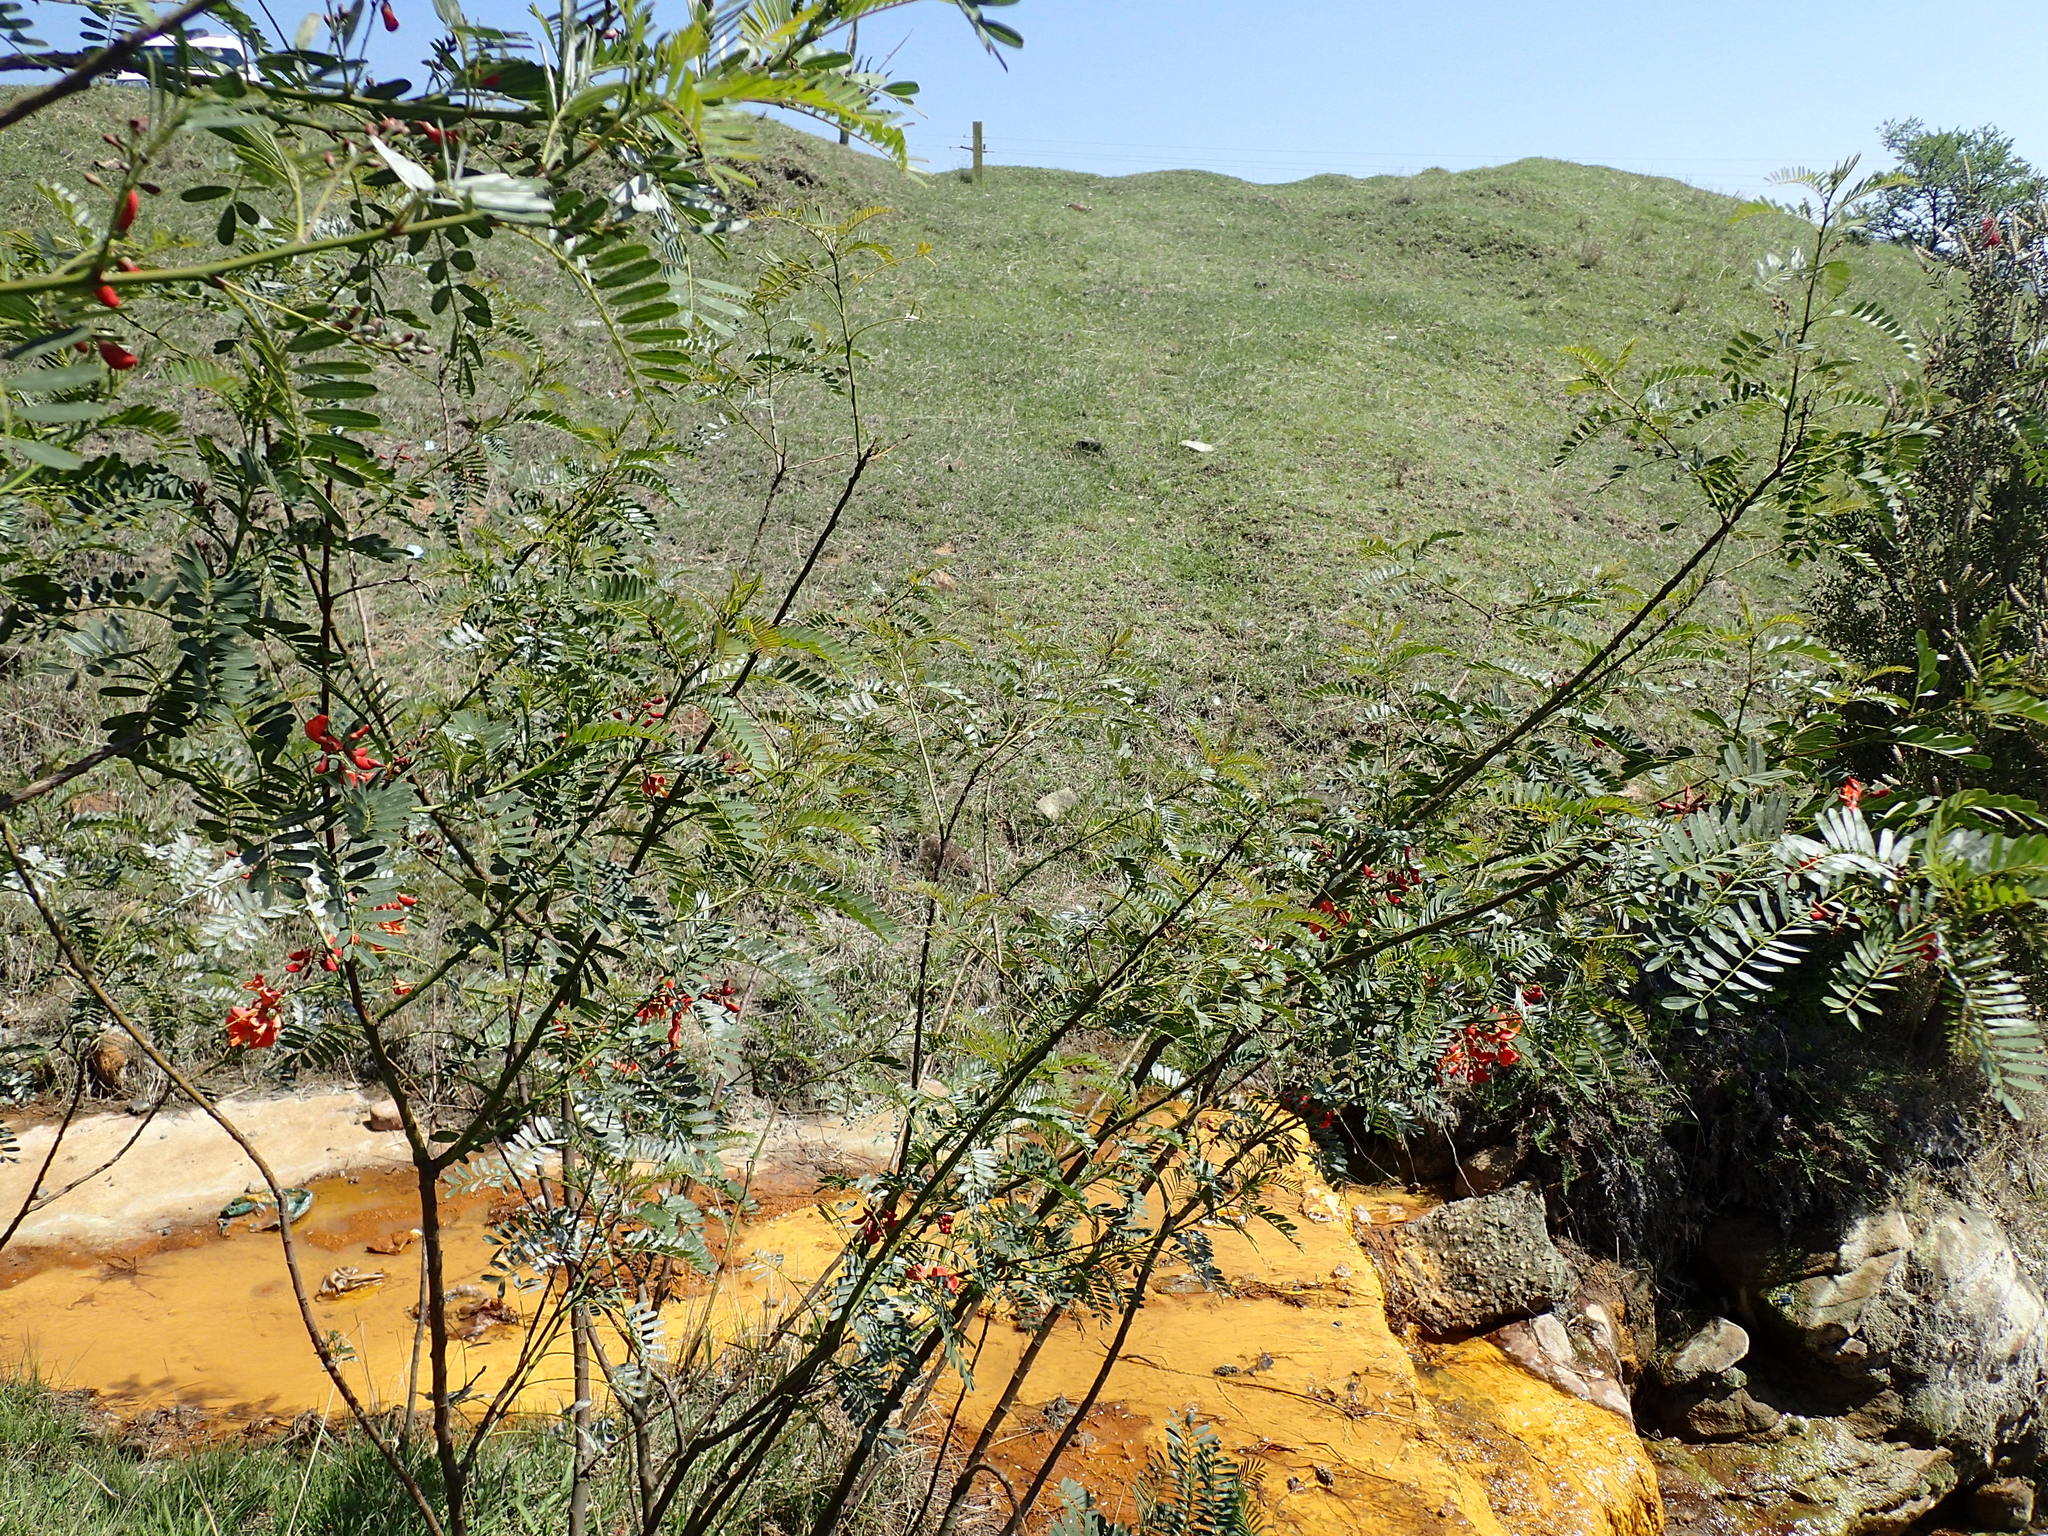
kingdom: Plantae
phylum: Tracheophyta
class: Magnoliopsida
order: Fabales
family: Fabaceae
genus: Sesbania
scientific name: Sesbania punicea
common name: Rattlebox
